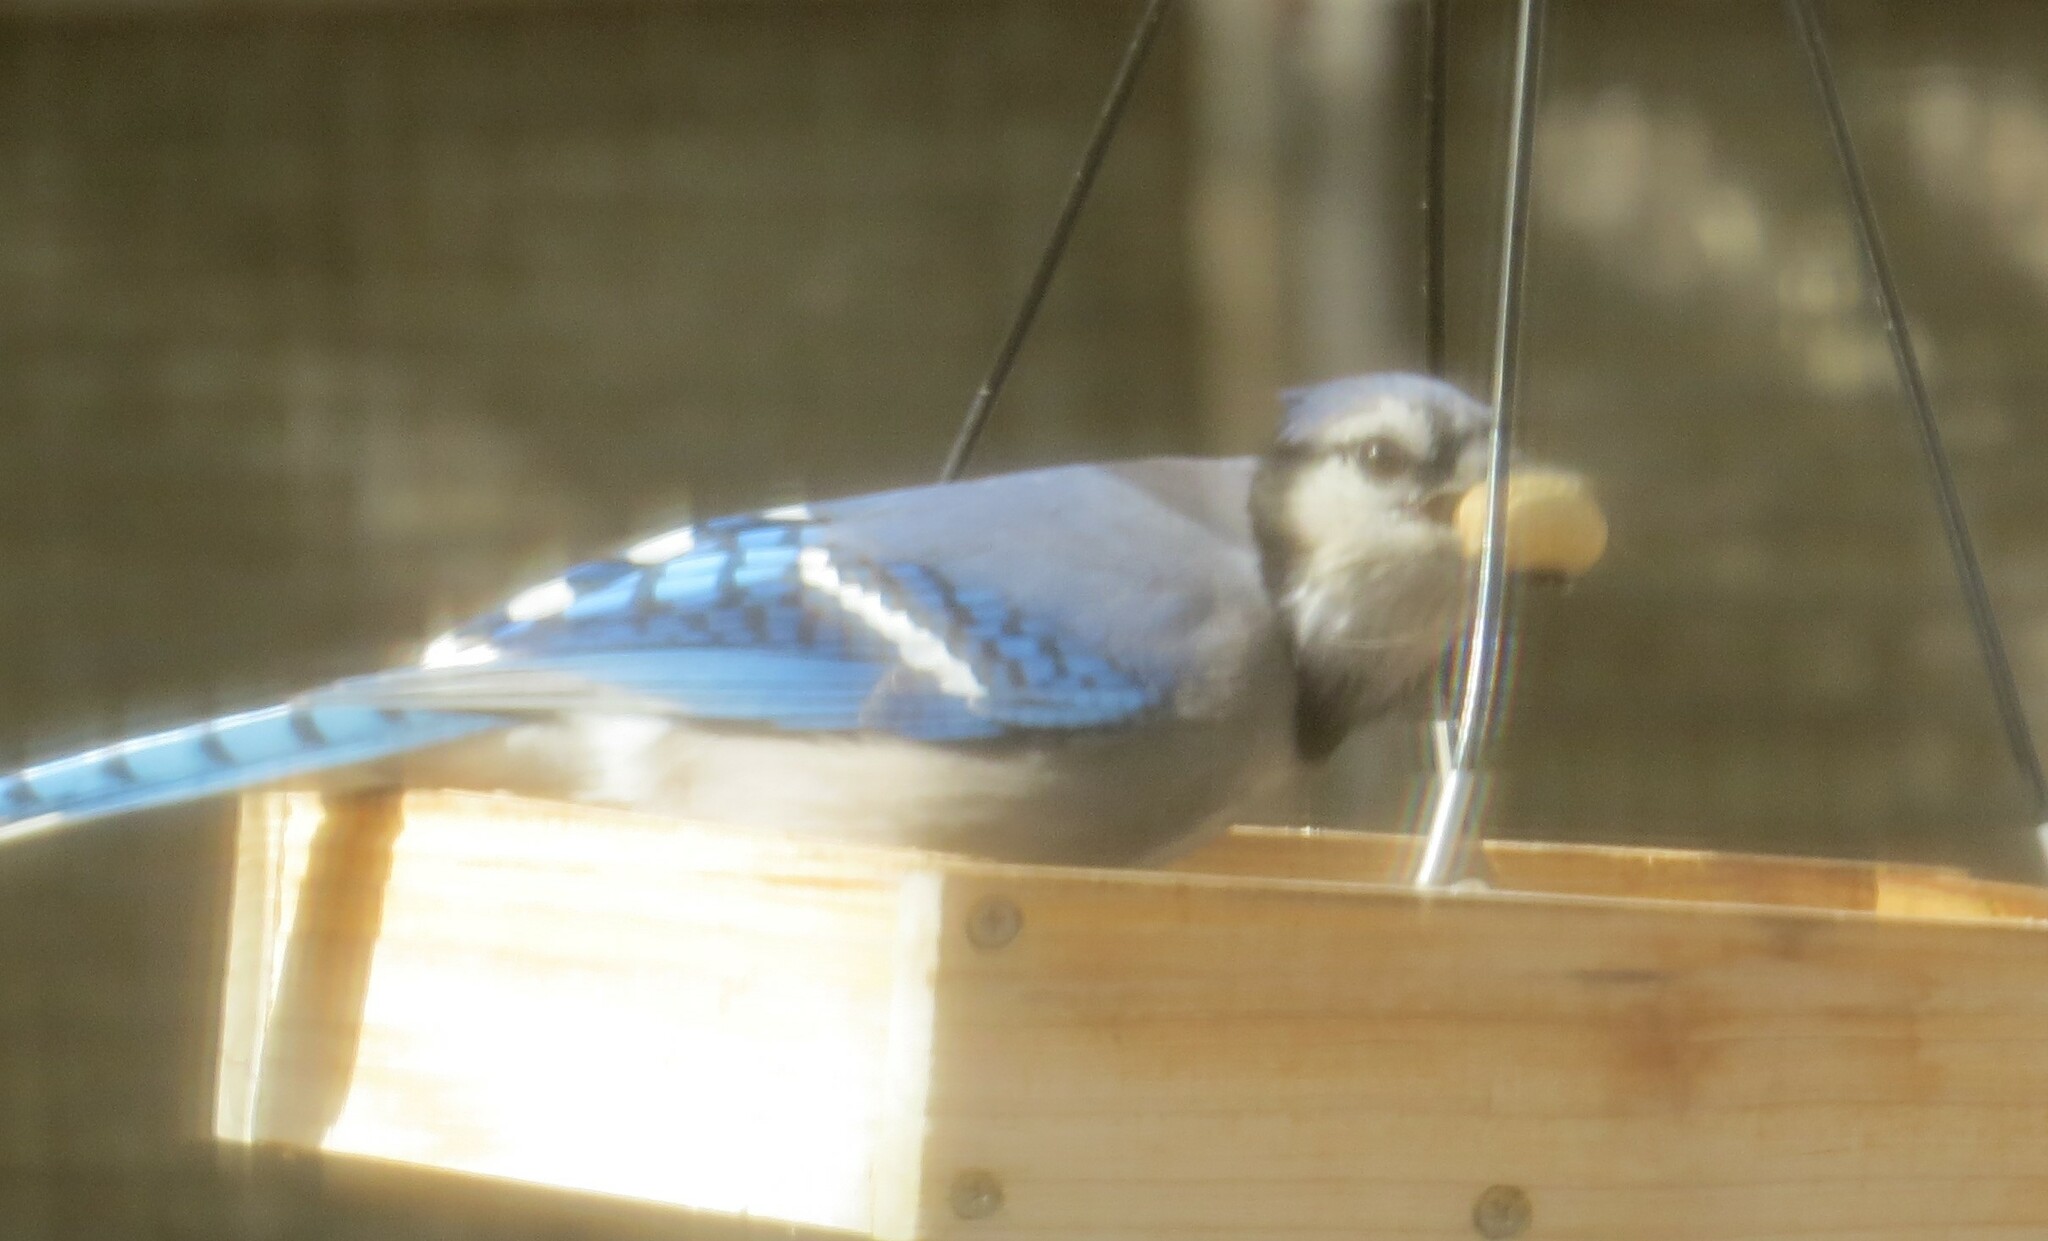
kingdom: Animalia
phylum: Chordata
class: Aves
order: Passeriformes
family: Corvidae
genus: Cyanocitta
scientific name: Cyanocitta cristata
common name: Blue jay
